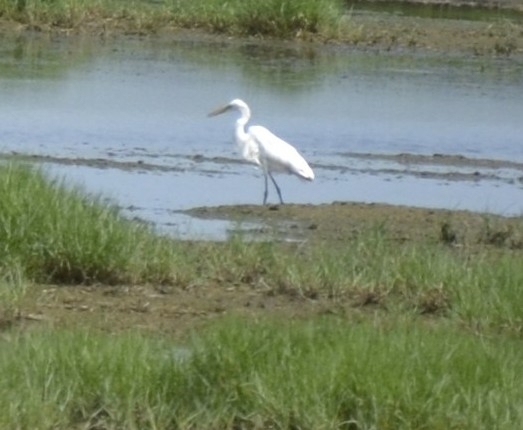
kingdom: Animalia
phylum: Chordata
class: Aves
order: Pelecaniformes
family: Ardeidae
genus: Ardea
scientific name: Ardea alba
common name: Great egret
